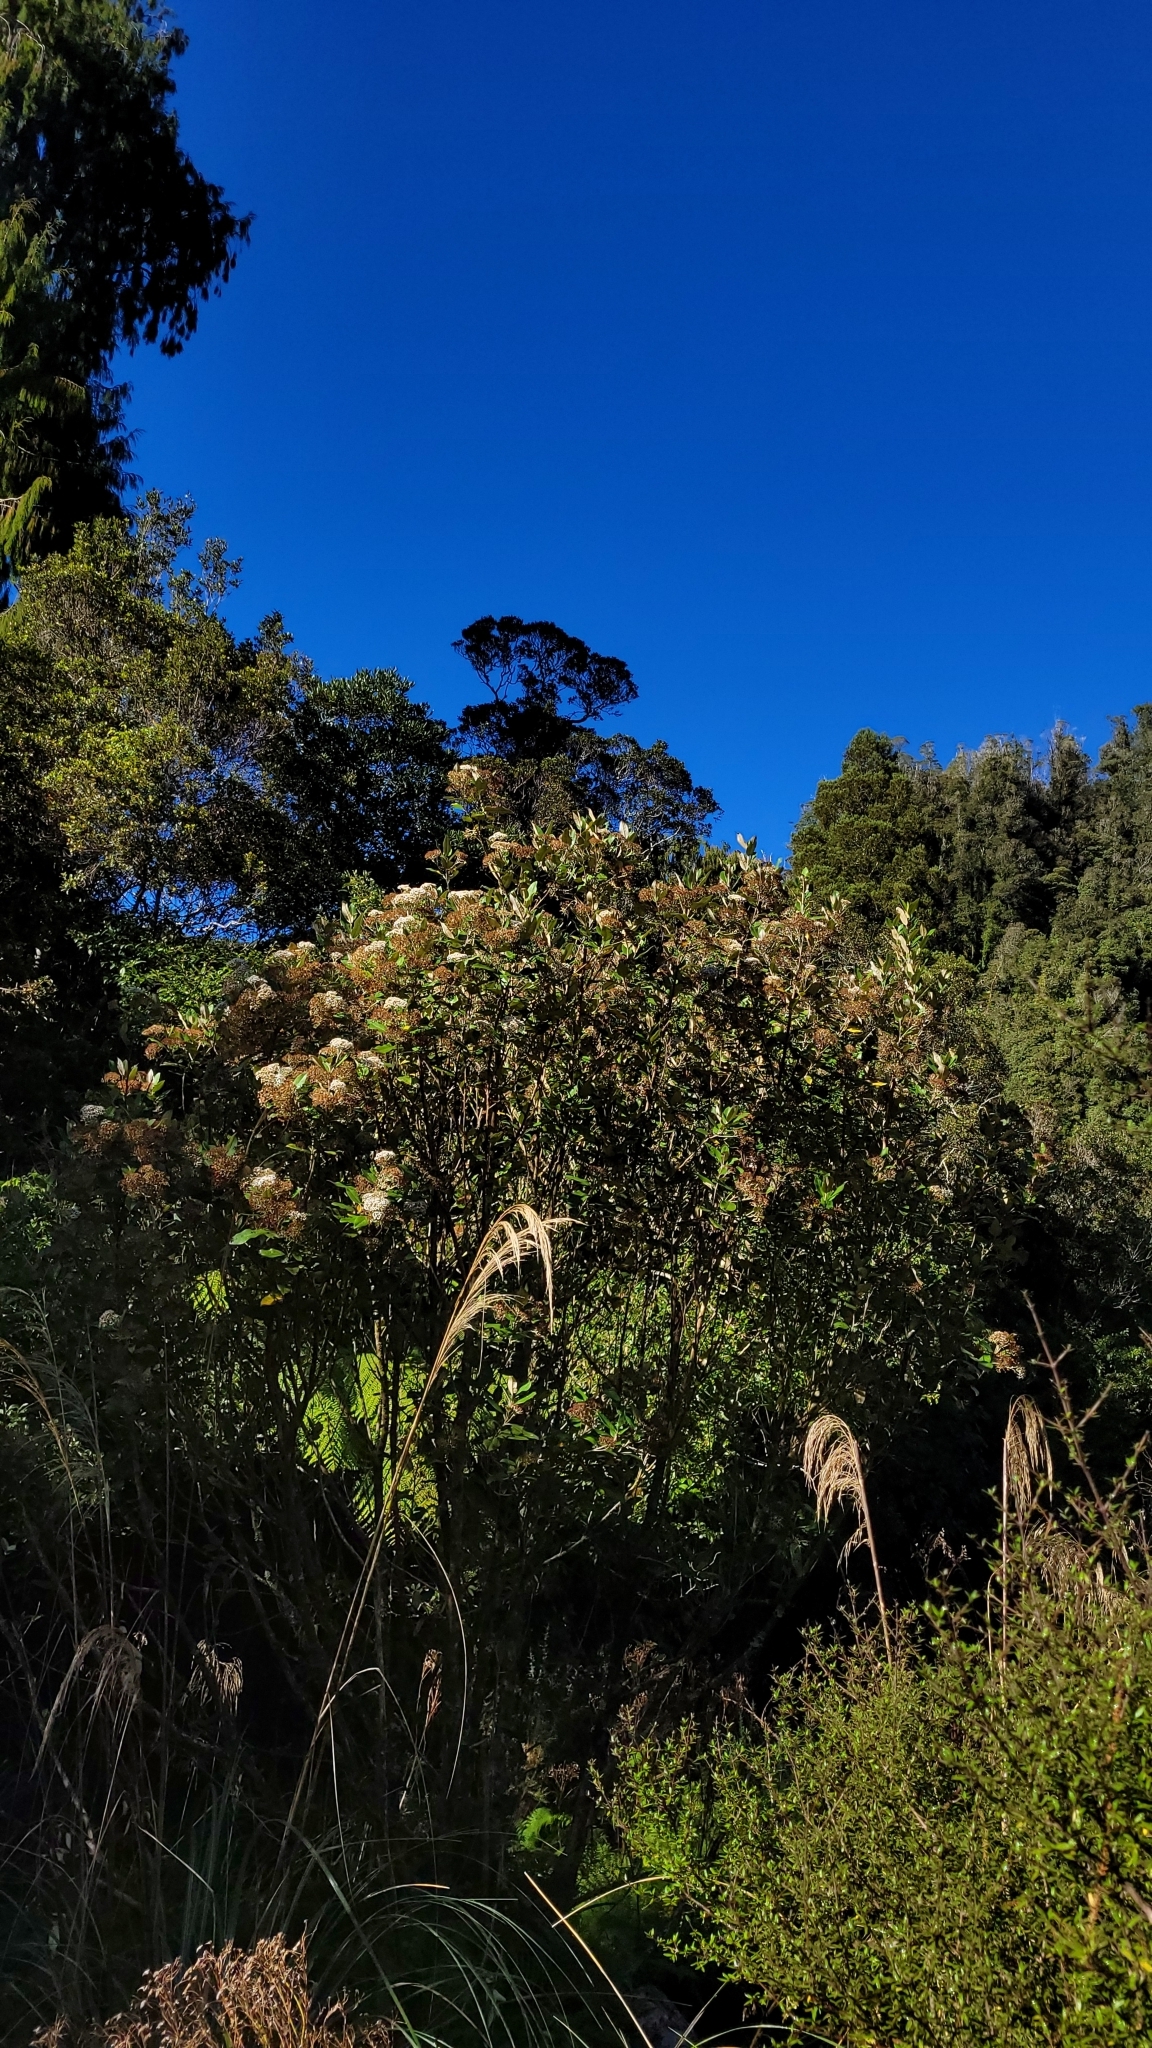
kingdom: Plantae
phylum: Tracheophyta
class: Magnoliopsida
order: Asterales
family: Asteraceae
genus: Olearia
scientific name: Olearia avicenniifolia
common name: Mangrove-leaf daisybush
